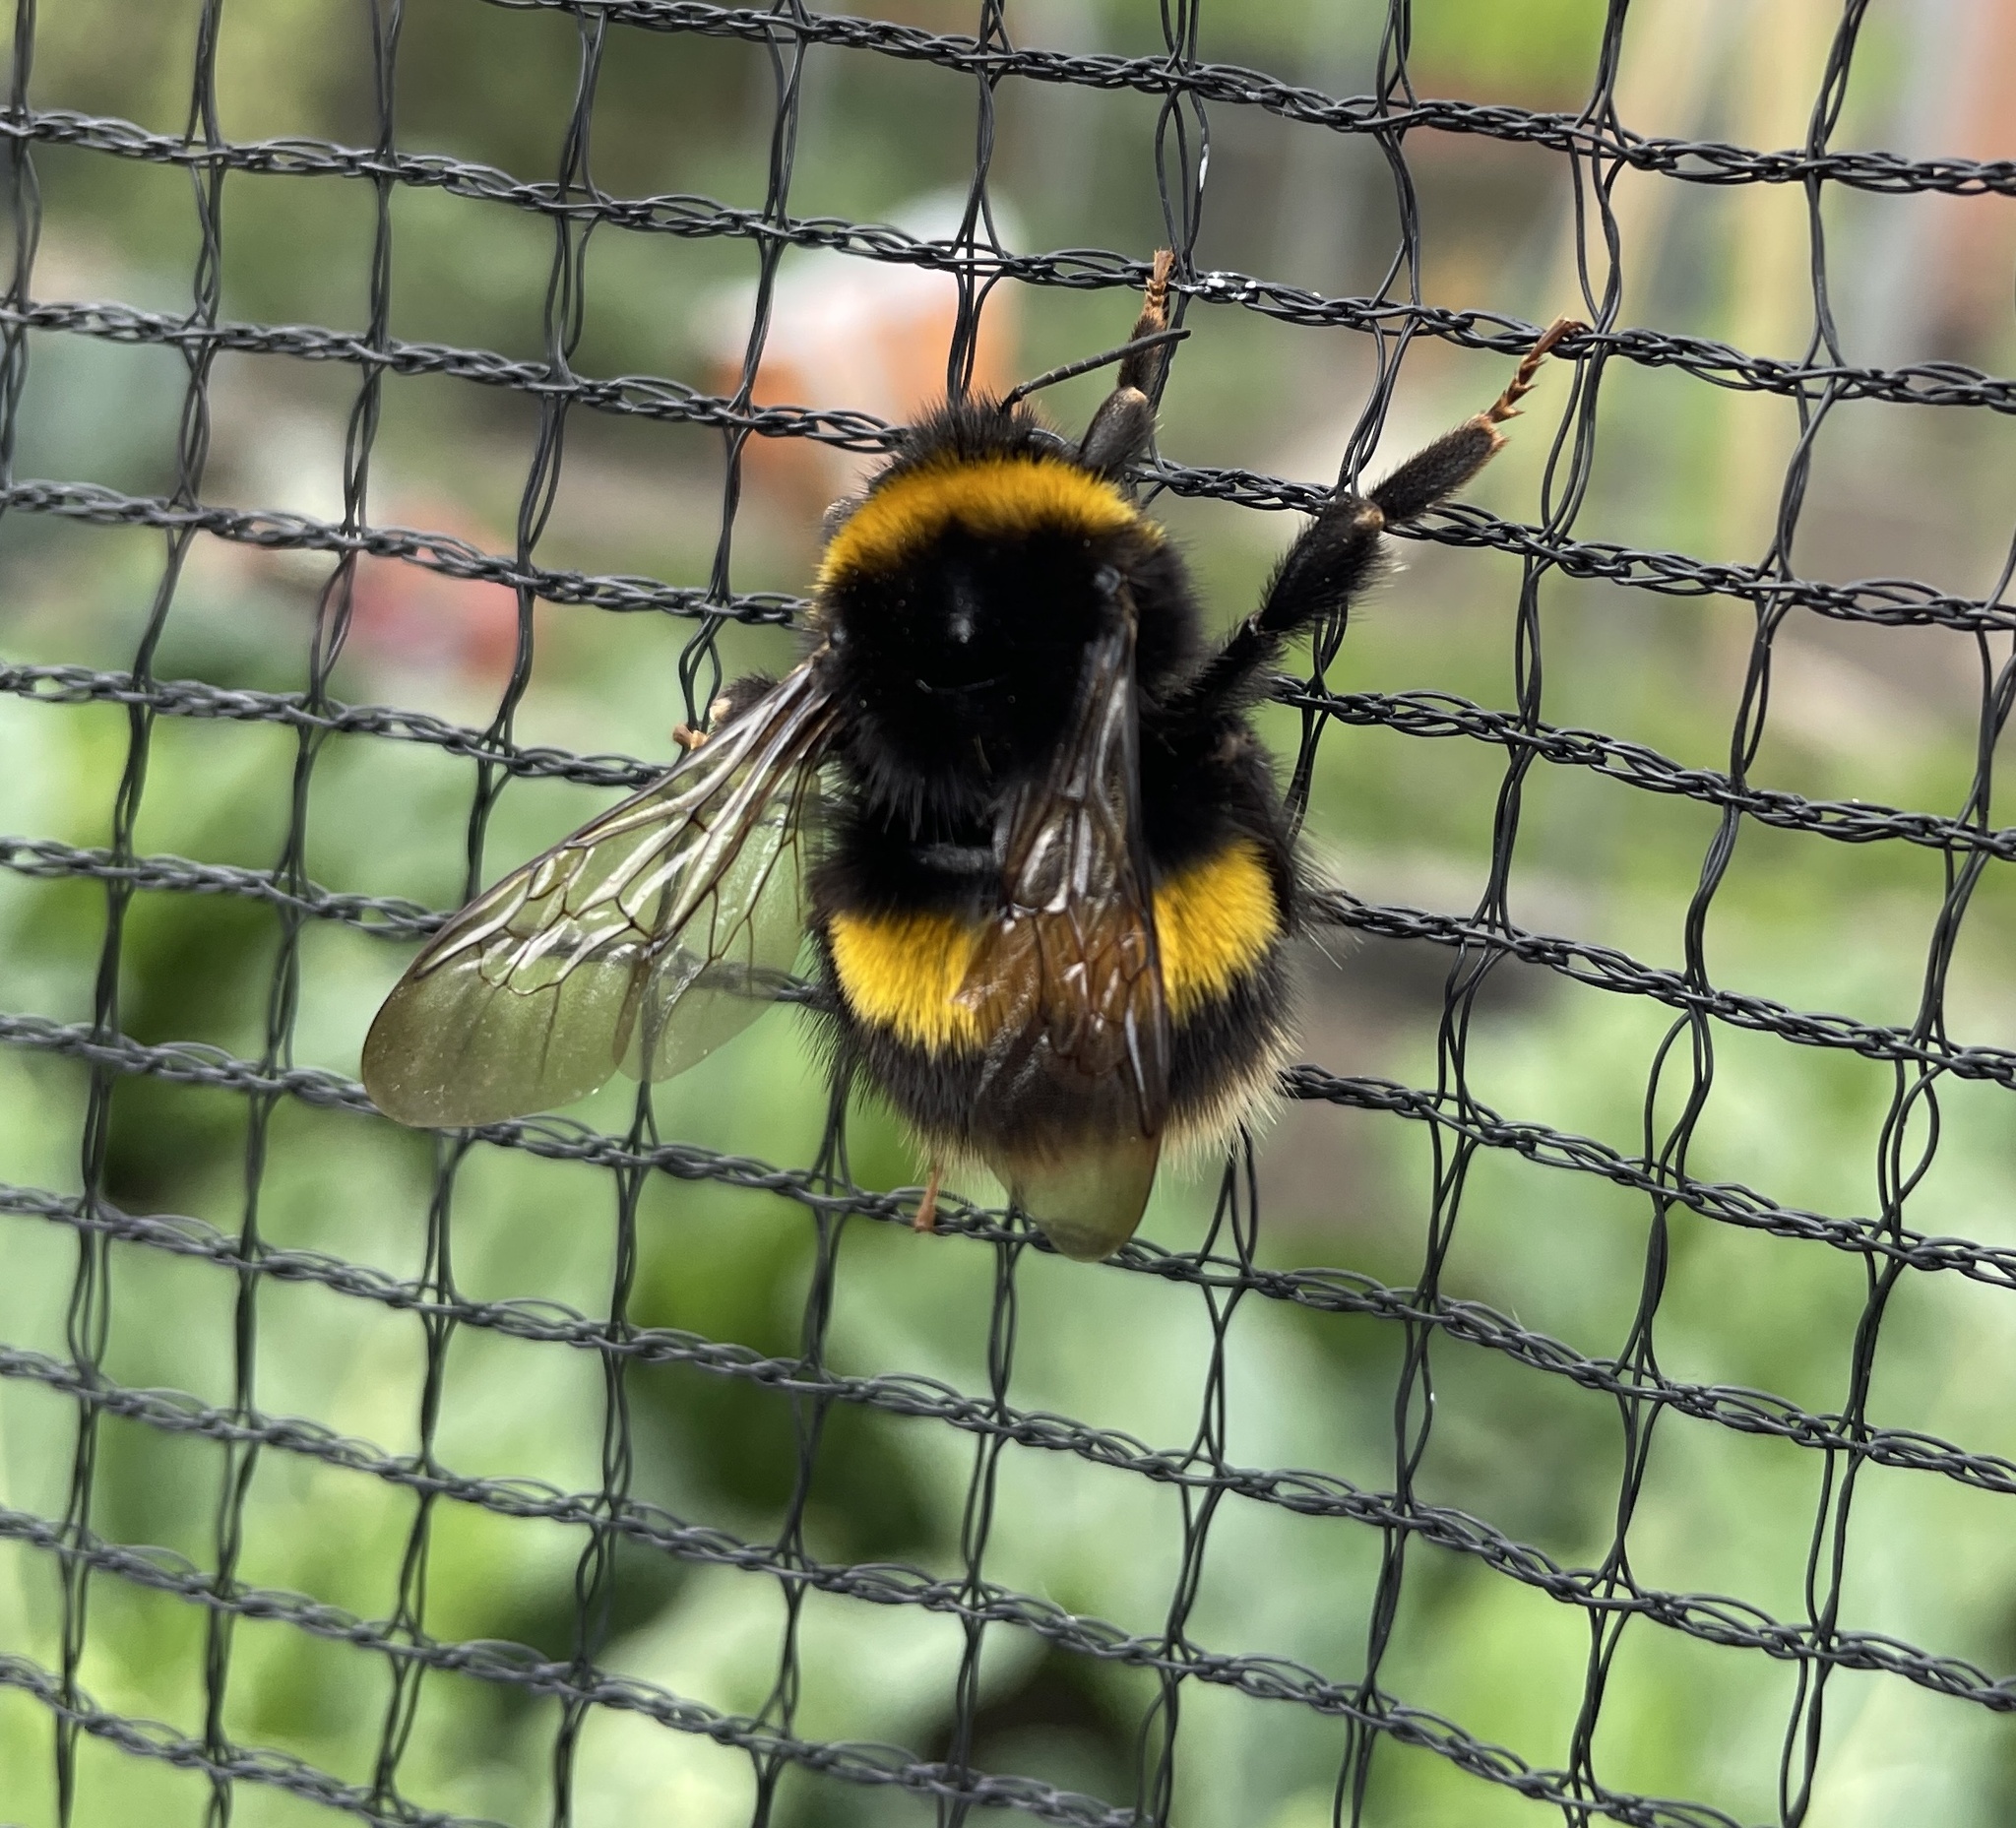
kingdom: Animalia
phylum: Arthropoda
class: Insecta
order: Hymenoptera
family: Apidae
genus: Bombus
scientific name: Bombus terrestris
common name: Buff-tailed bumblebee
